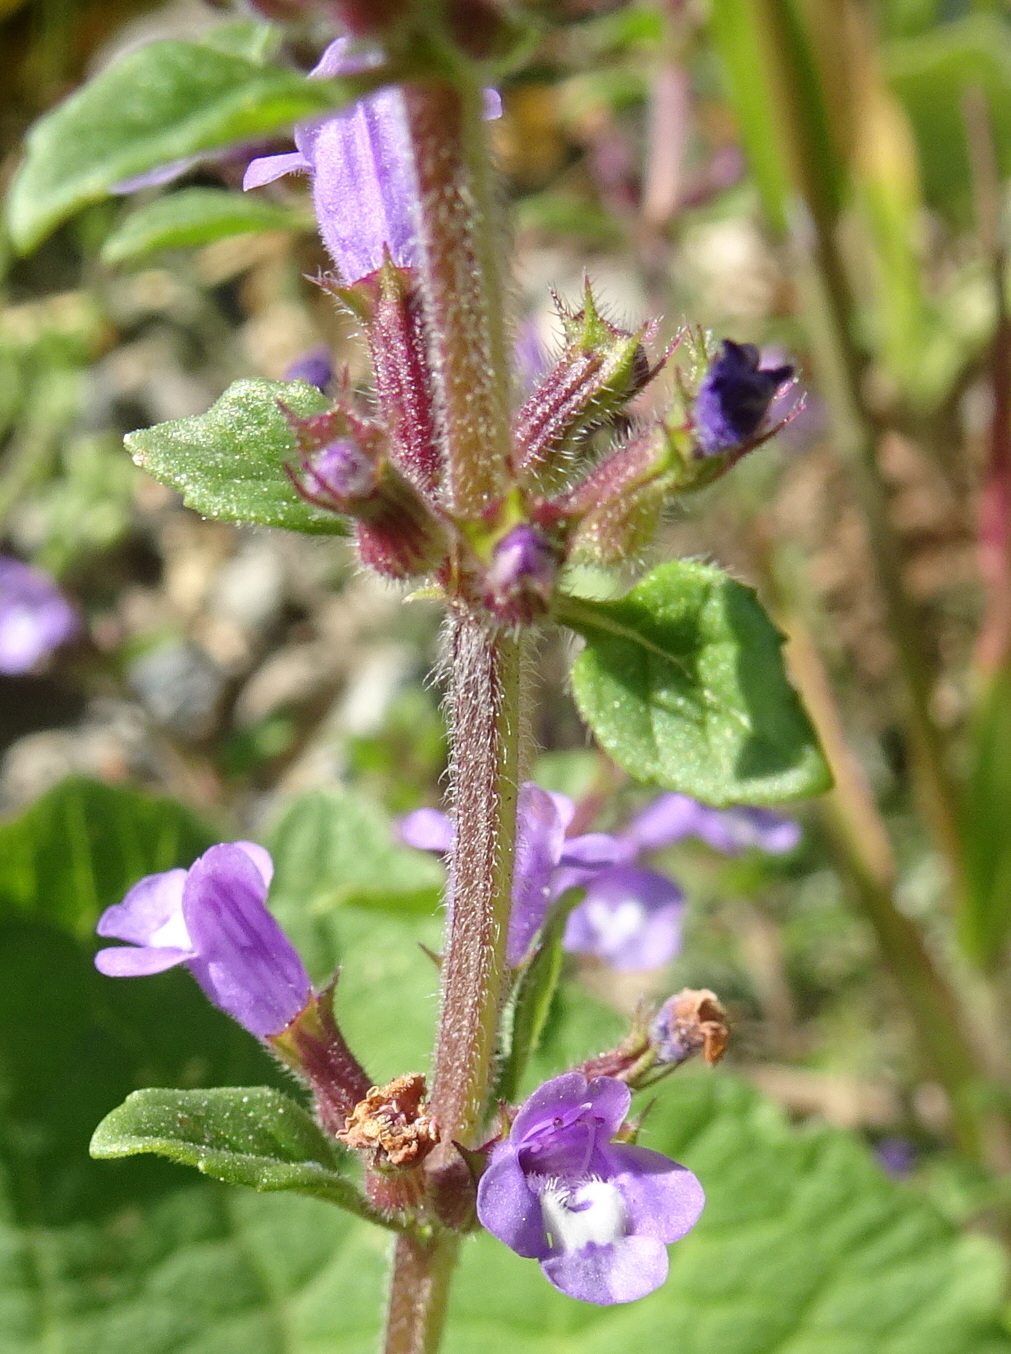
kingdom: Plantae
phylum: Tracheophyta
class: Magnoliopsida
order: Lamiales
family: Lamiaceae
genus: Clinopodium
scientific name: Clinopodium acinos
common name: Basil thyme
